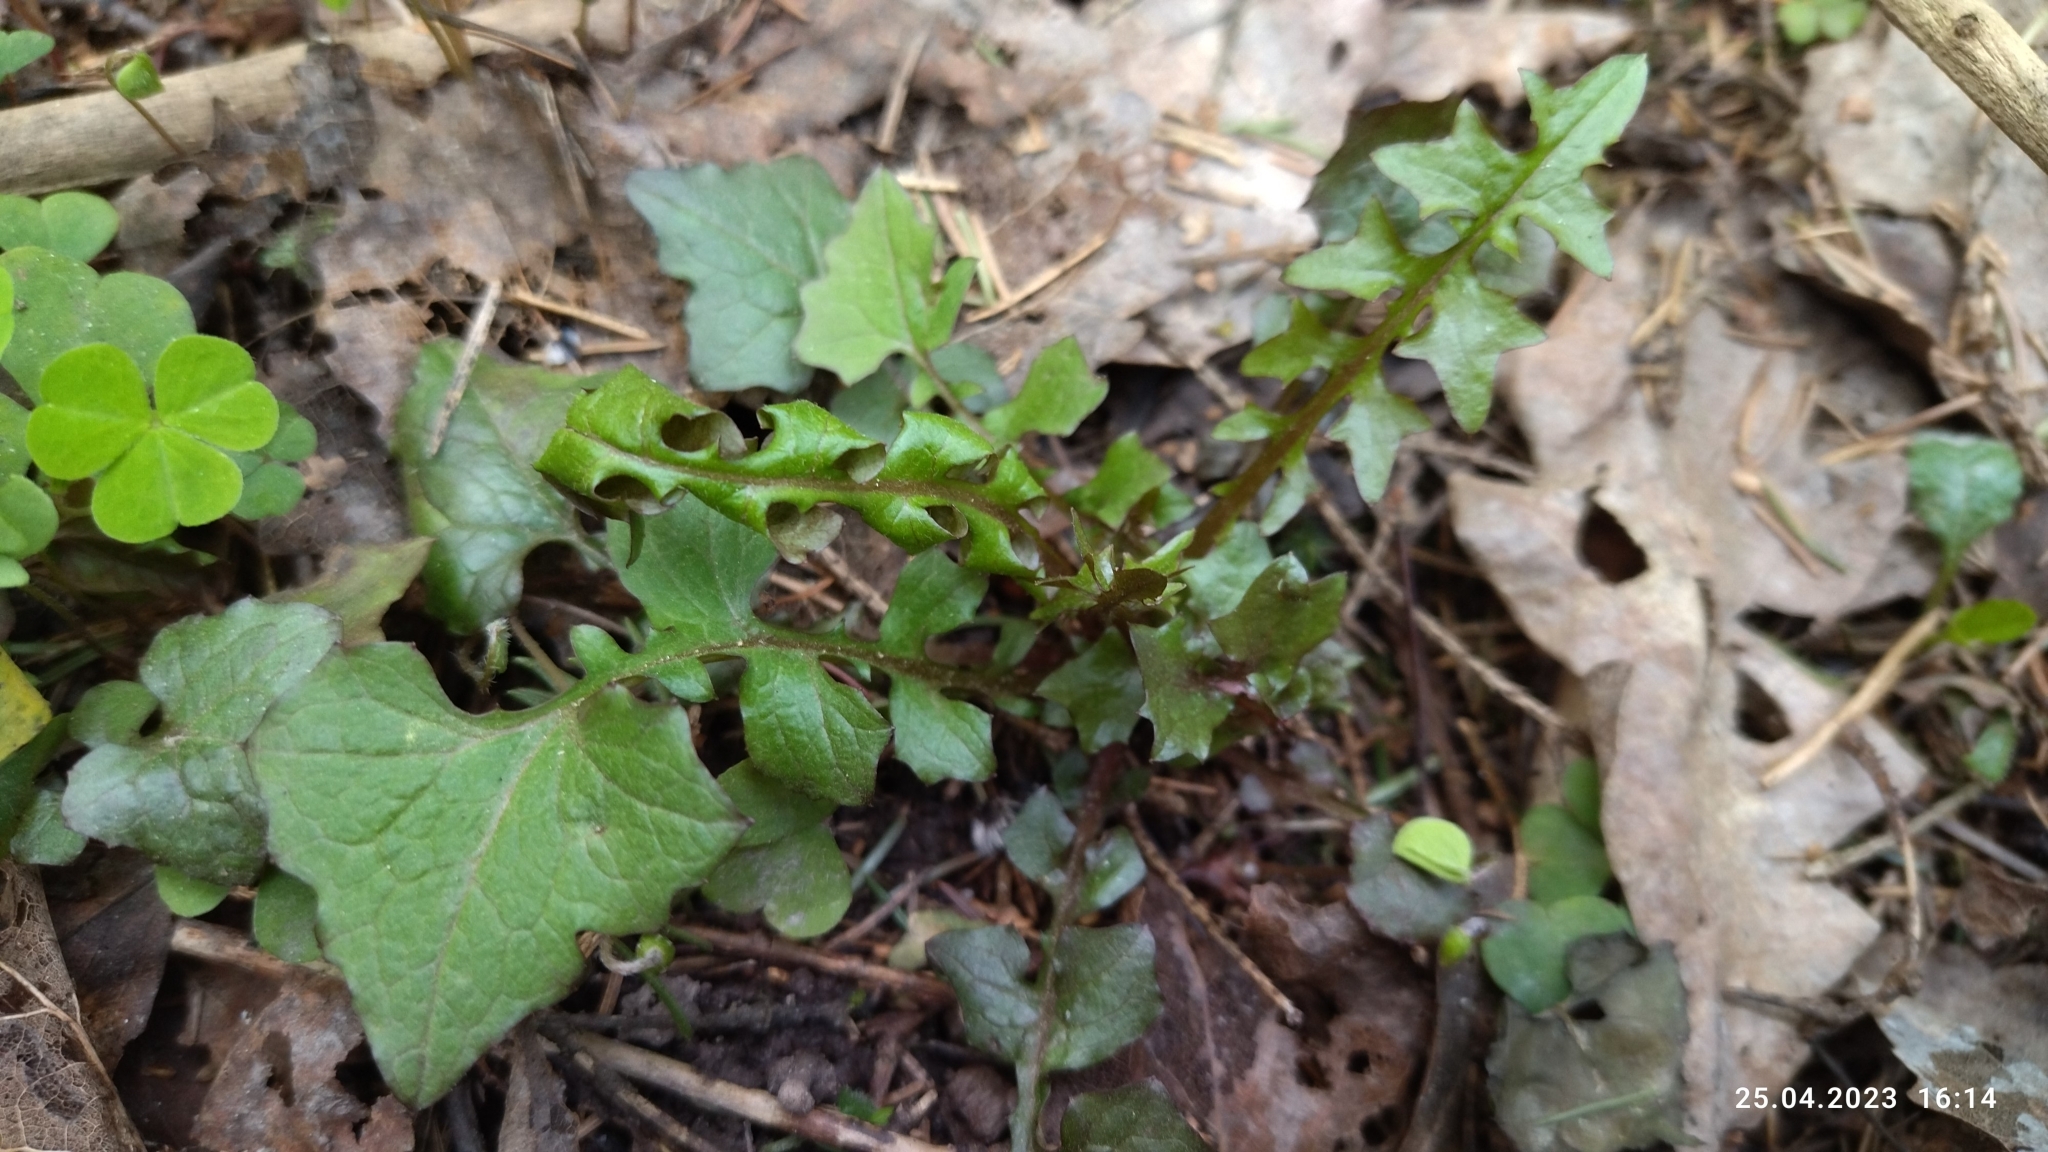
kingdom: Plantae
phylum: Tracheophyta
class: Magnoliopsida
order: Asterales
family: Asteraceae
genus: Mycelis
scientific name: Mycelis muralis
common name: Wall lettuce
